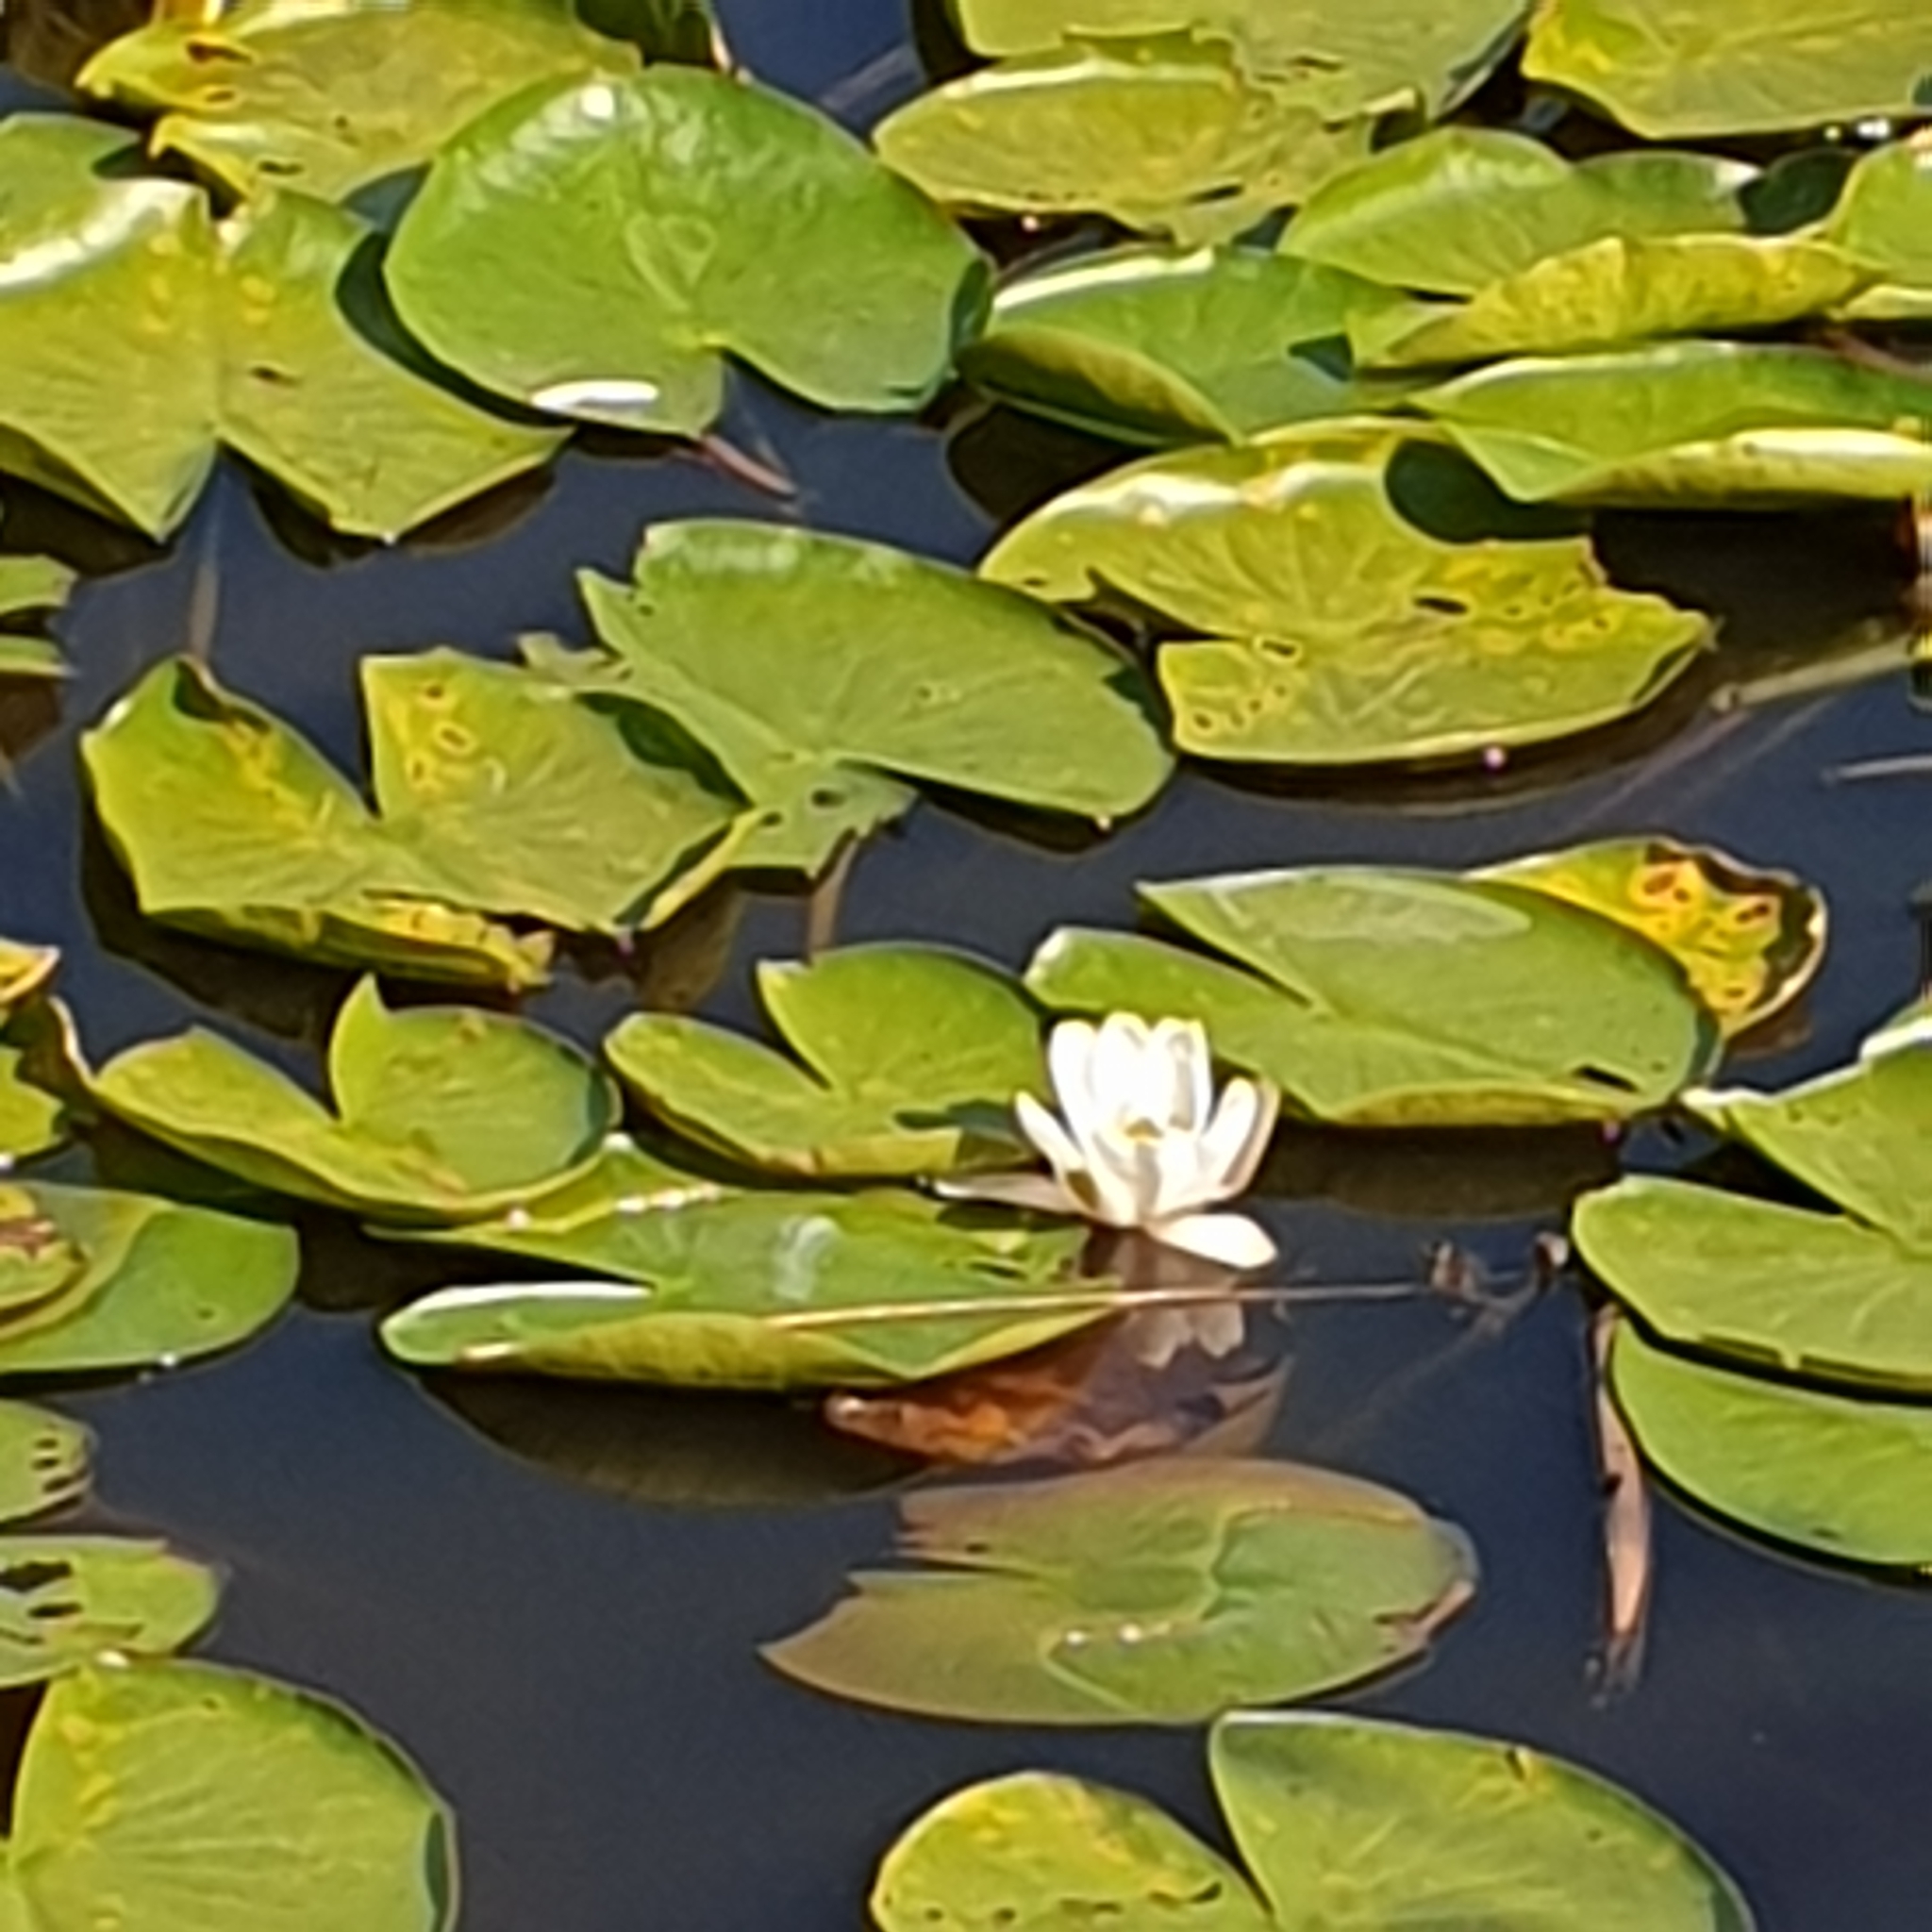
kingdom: Plantae
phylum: Tracheophyta
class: Magnoliopsida
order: Nymphaeales
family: Nymphaeaceae
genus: Nymphaea
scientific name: Nymphaea alba
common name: White water-lily
